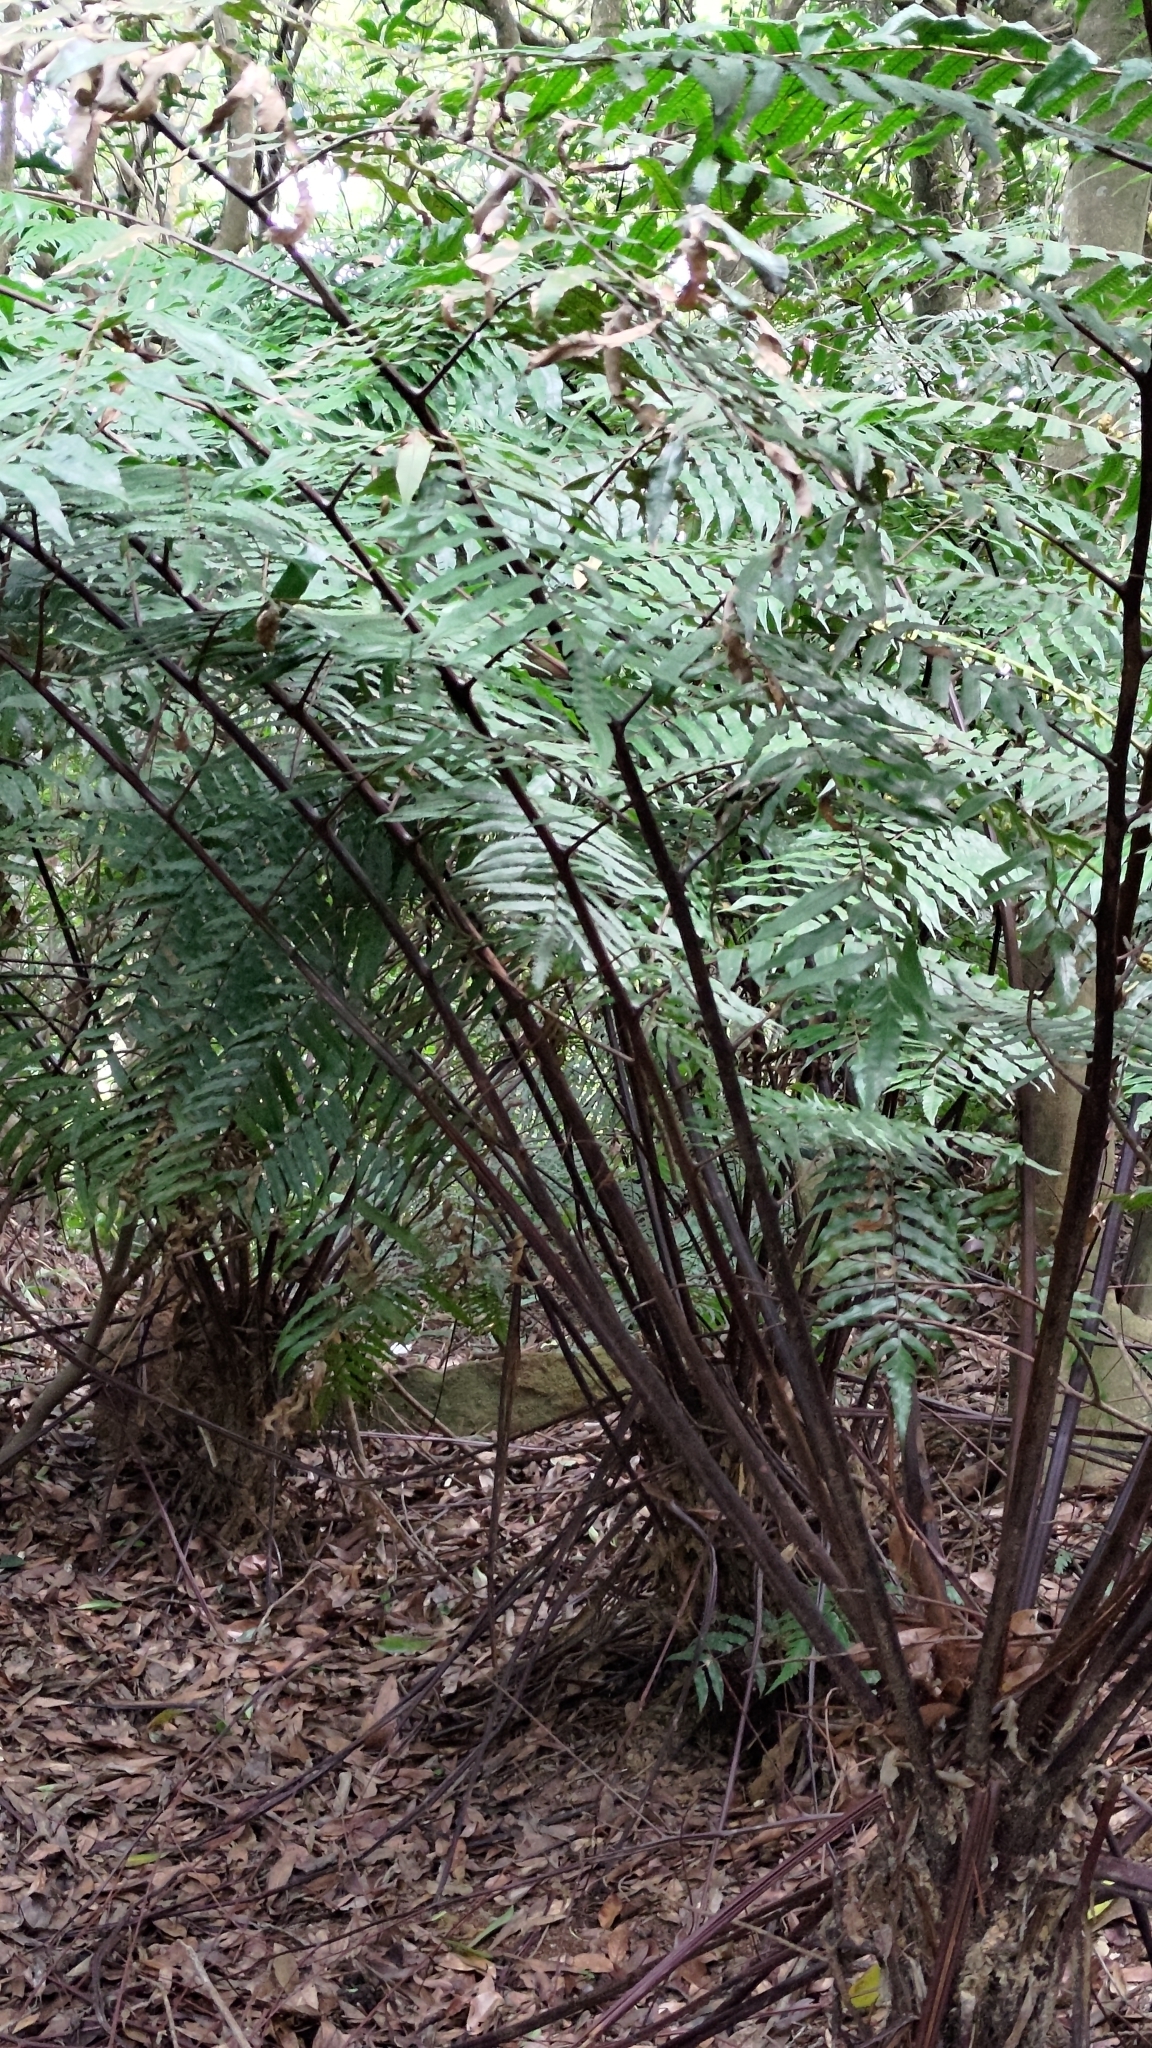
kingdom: Plantae
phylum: Tracheophyta
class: Polypodiopsida
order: Cyatheales
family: Cyatheaceae
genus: Gymnosphaera
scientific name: Gymnosphaera podophylla
